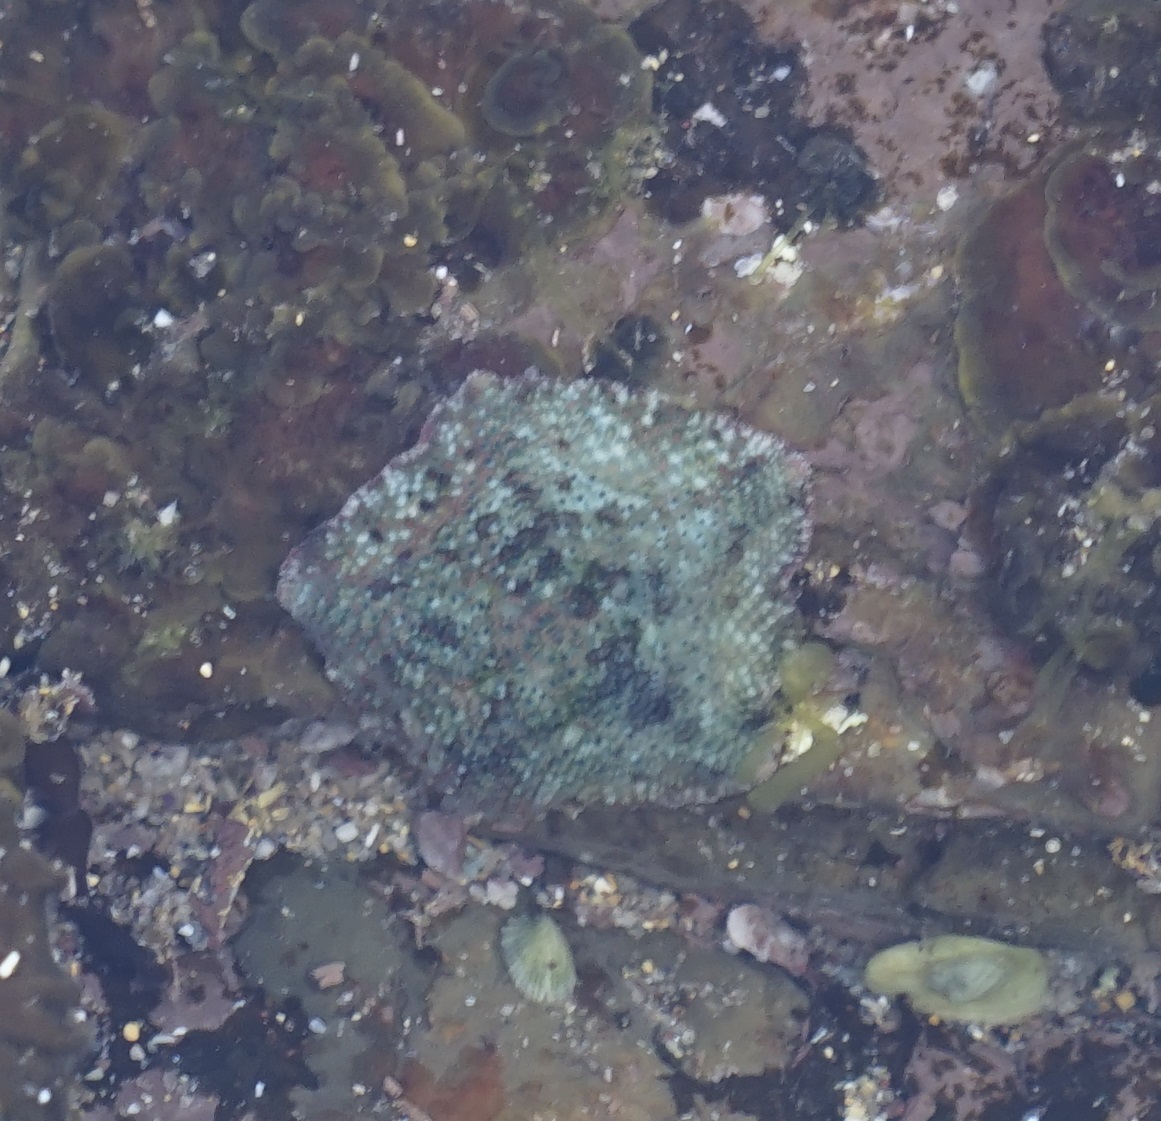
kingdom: Animalia
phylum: Echinodermata
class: Asteroidea
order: Valvatida
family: Asterinidae
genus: Parvulastra
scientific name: Parvulastra exigua
